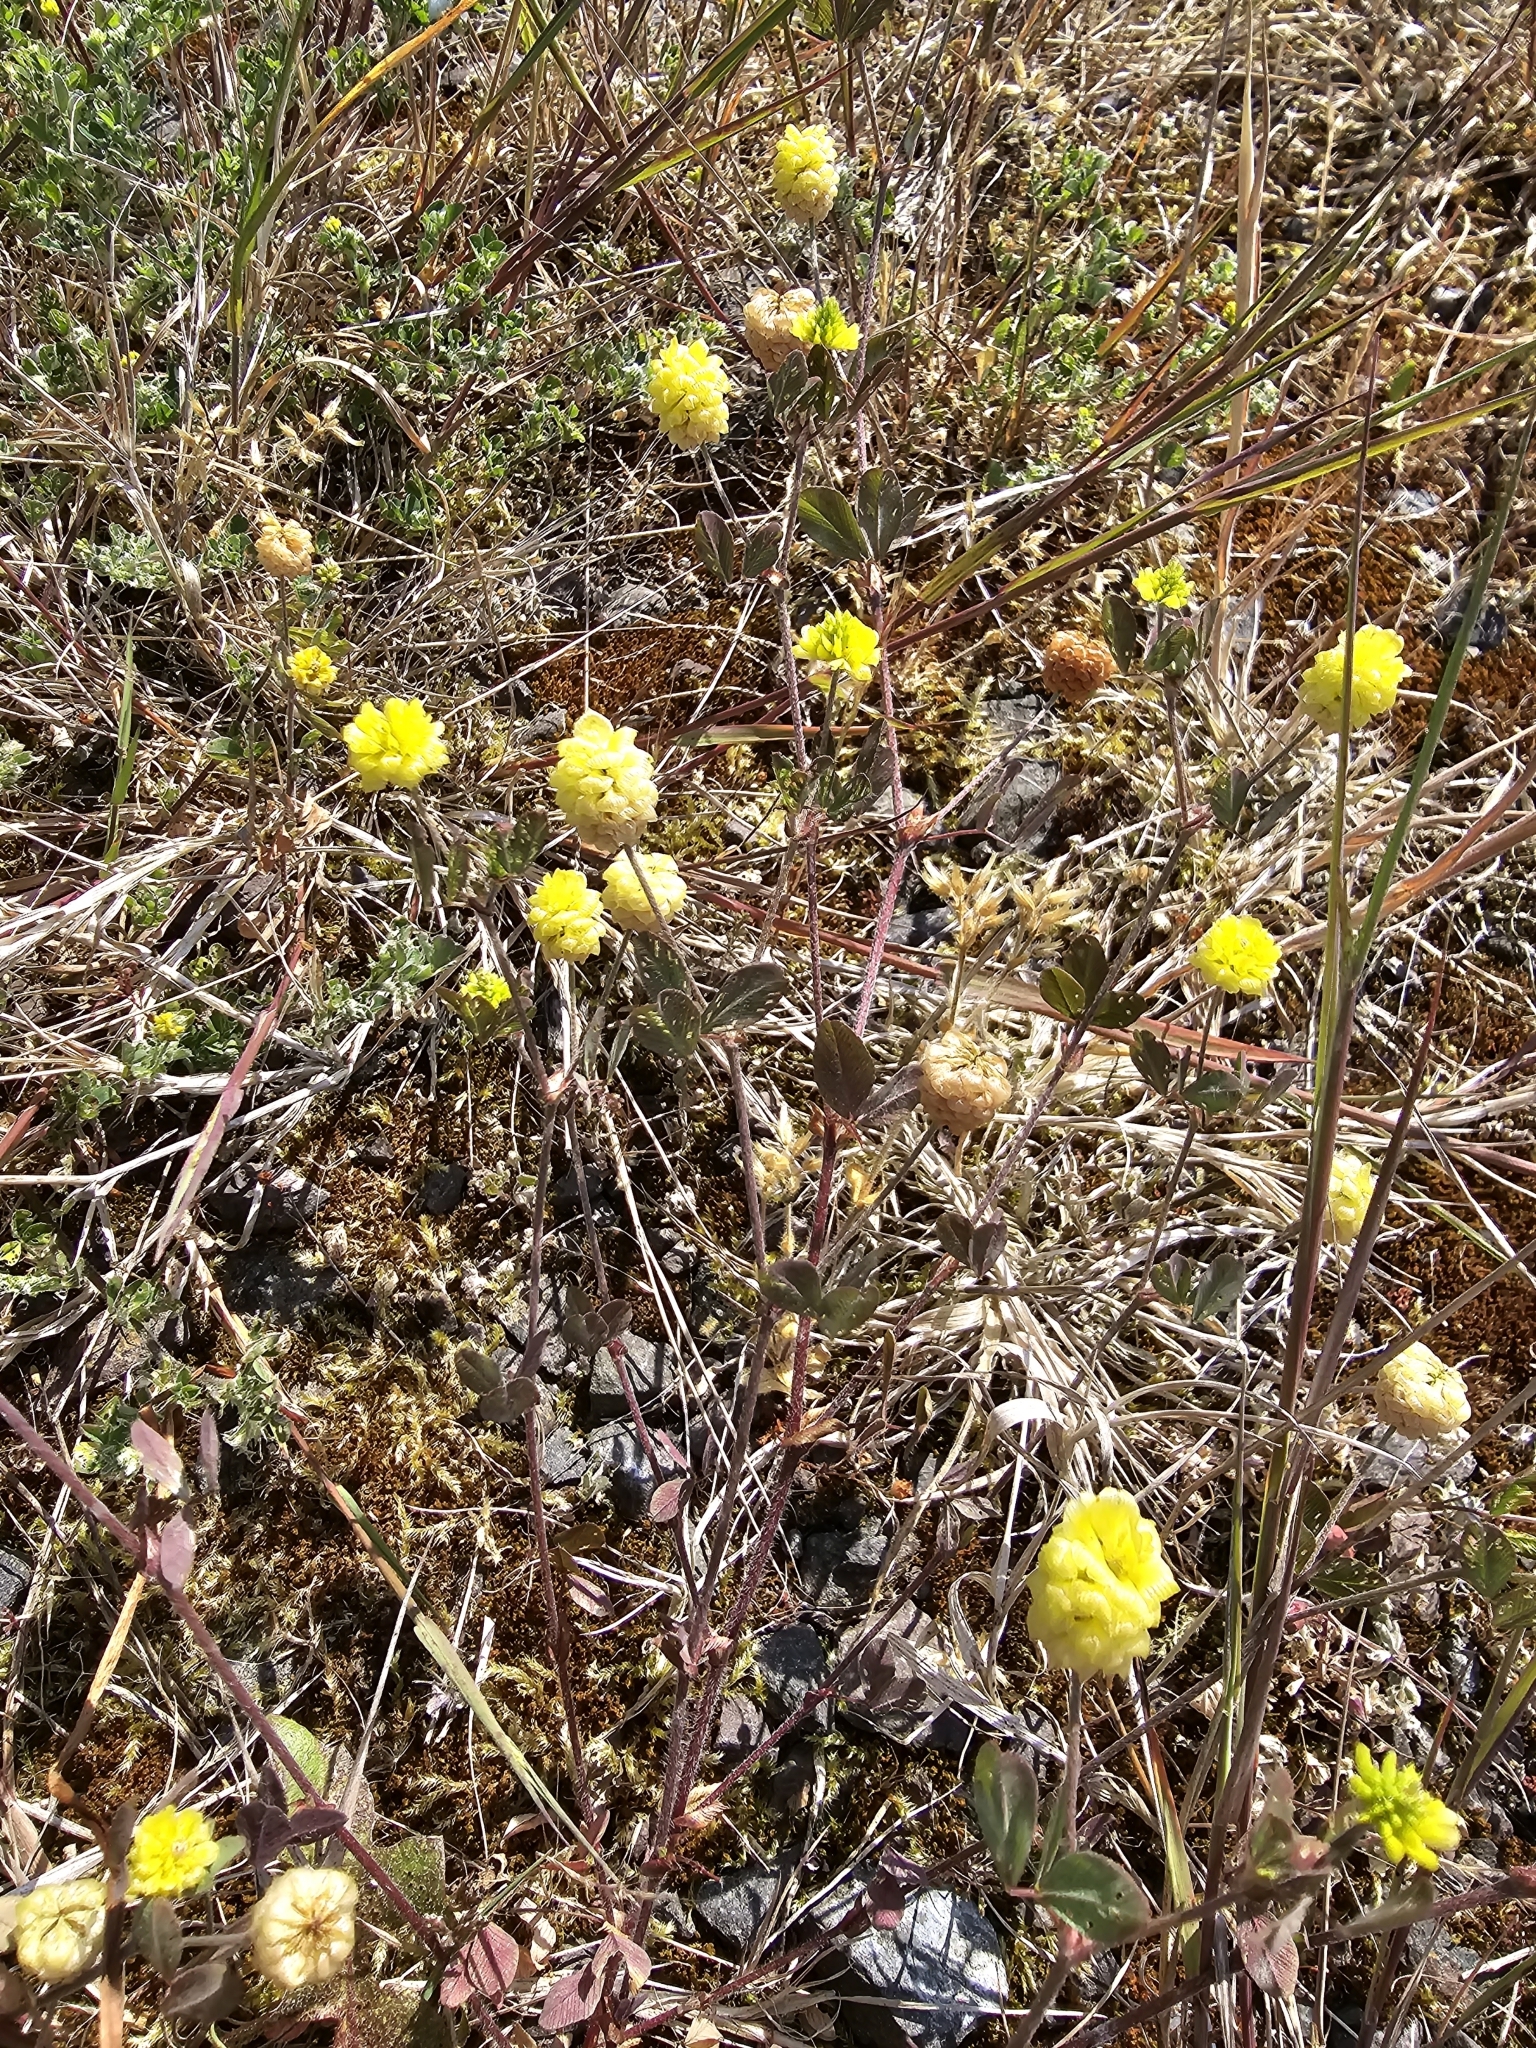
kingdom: Plantae
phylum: Tracheophyta
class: Magnoliopsida
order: Fabales
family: Fabaceae
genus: Trifolium
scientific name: Trifolium campestre
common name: Field clover
